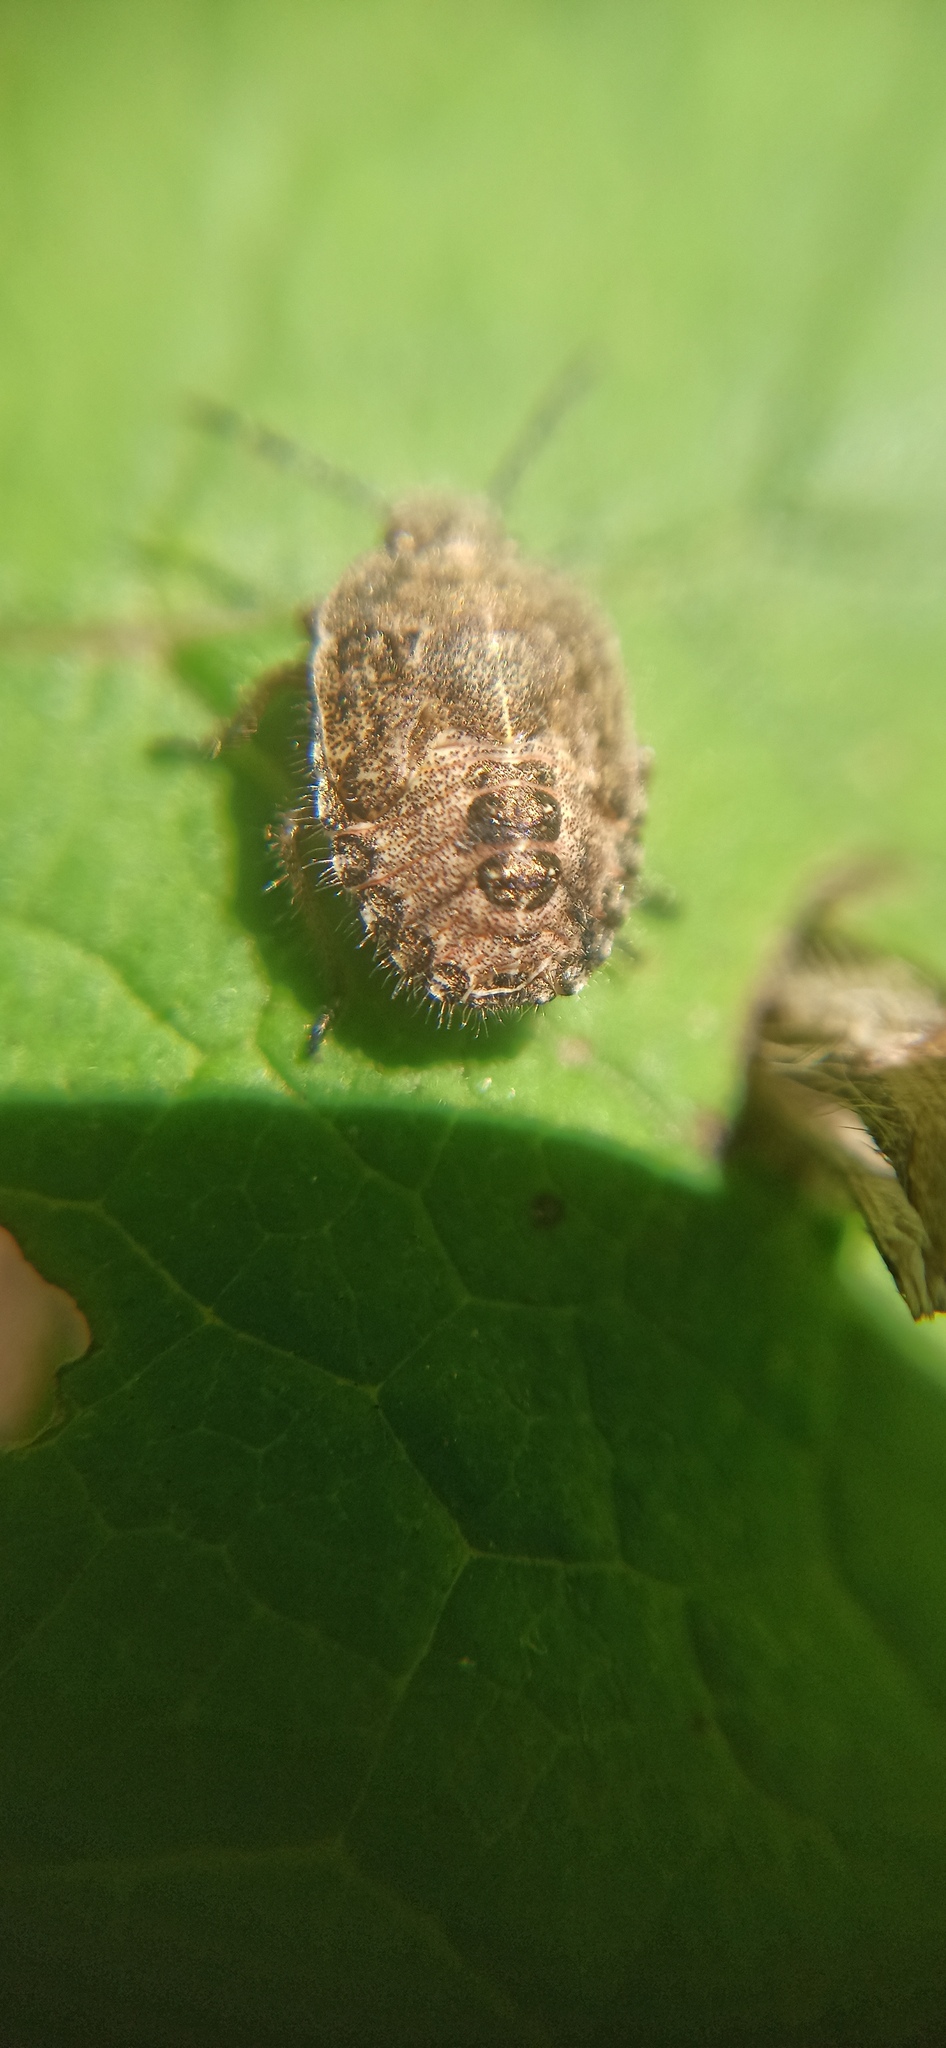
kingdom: Animalia
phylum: Arthropoda
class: Insecta
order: Hemiptera
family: Pentatomidae
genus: Dolycoris
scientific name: Dolycoris baccarum
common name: Sloe bug
